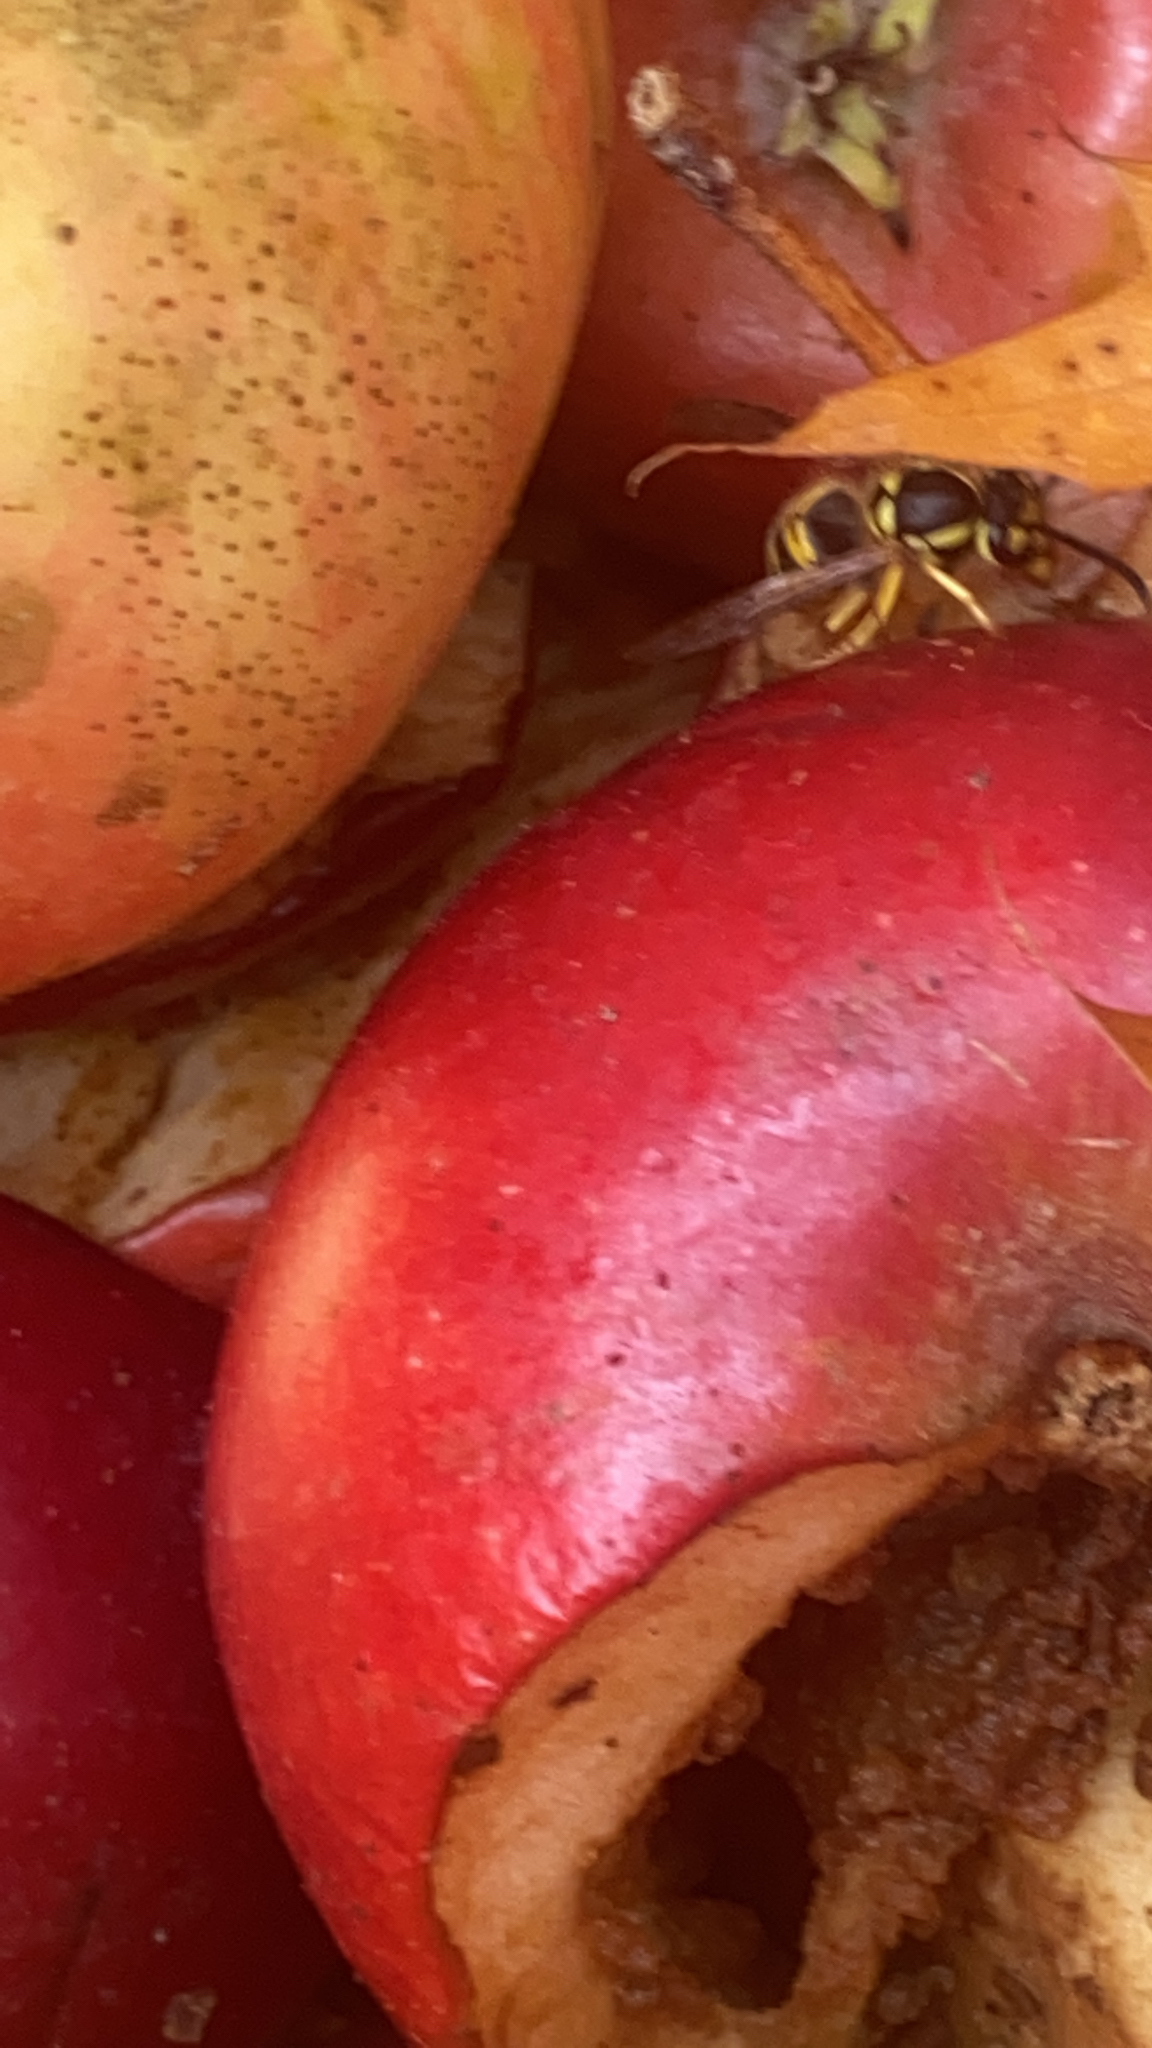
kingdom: Animalia
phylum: Arthropoda
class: Insecta
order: Hymenoptera
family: Vespidae
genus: Vespula
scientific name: Vespula maculifrons
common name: Eastern yellowjacket
